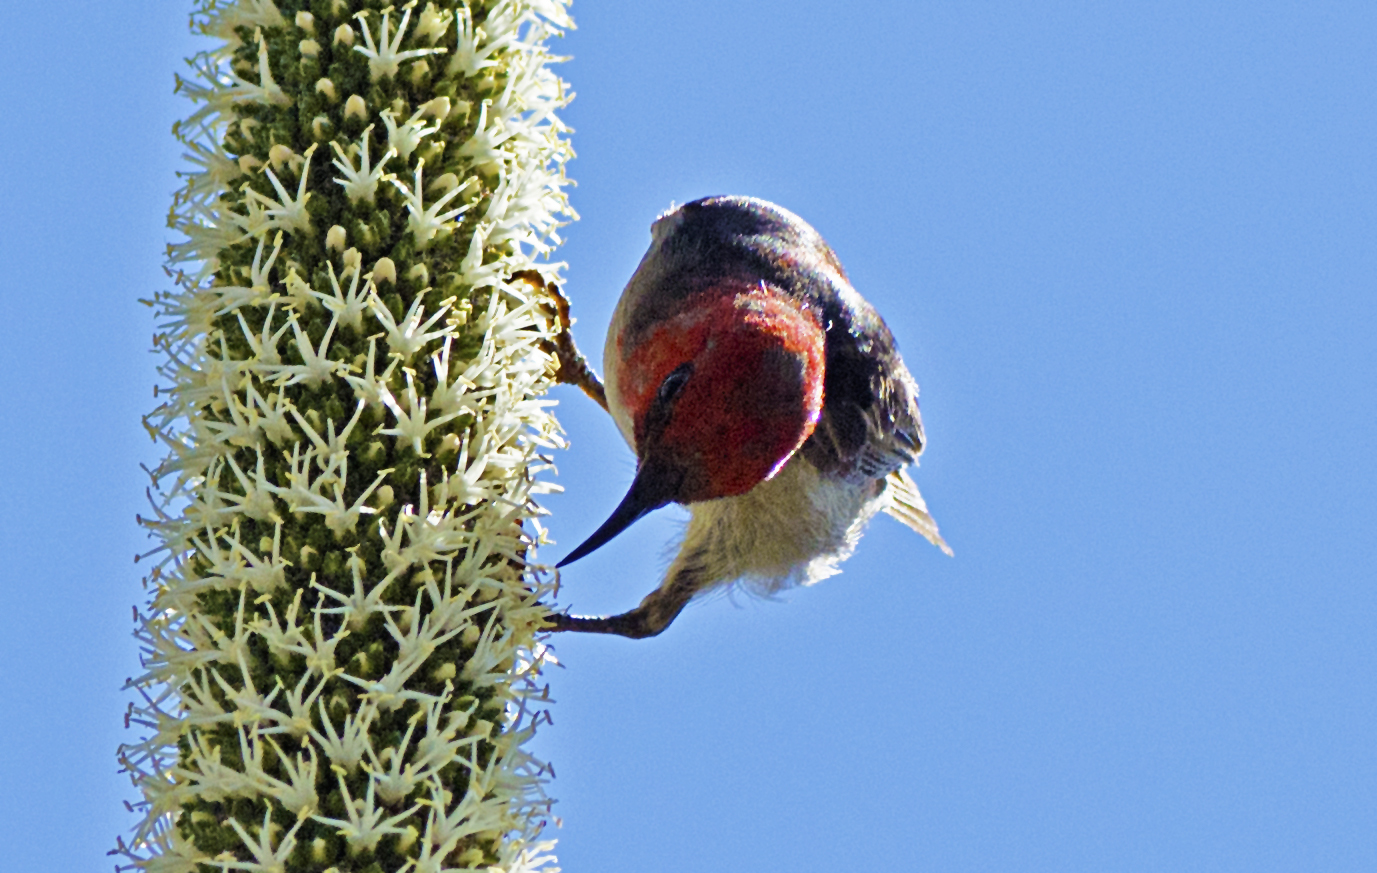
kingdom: Animalia
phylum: Chordata
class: Aves
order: Passeriformes
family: Meliphagidae
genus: Myzomela
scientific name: Myzomela sanguinolenta
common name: Scarlet myzomela
